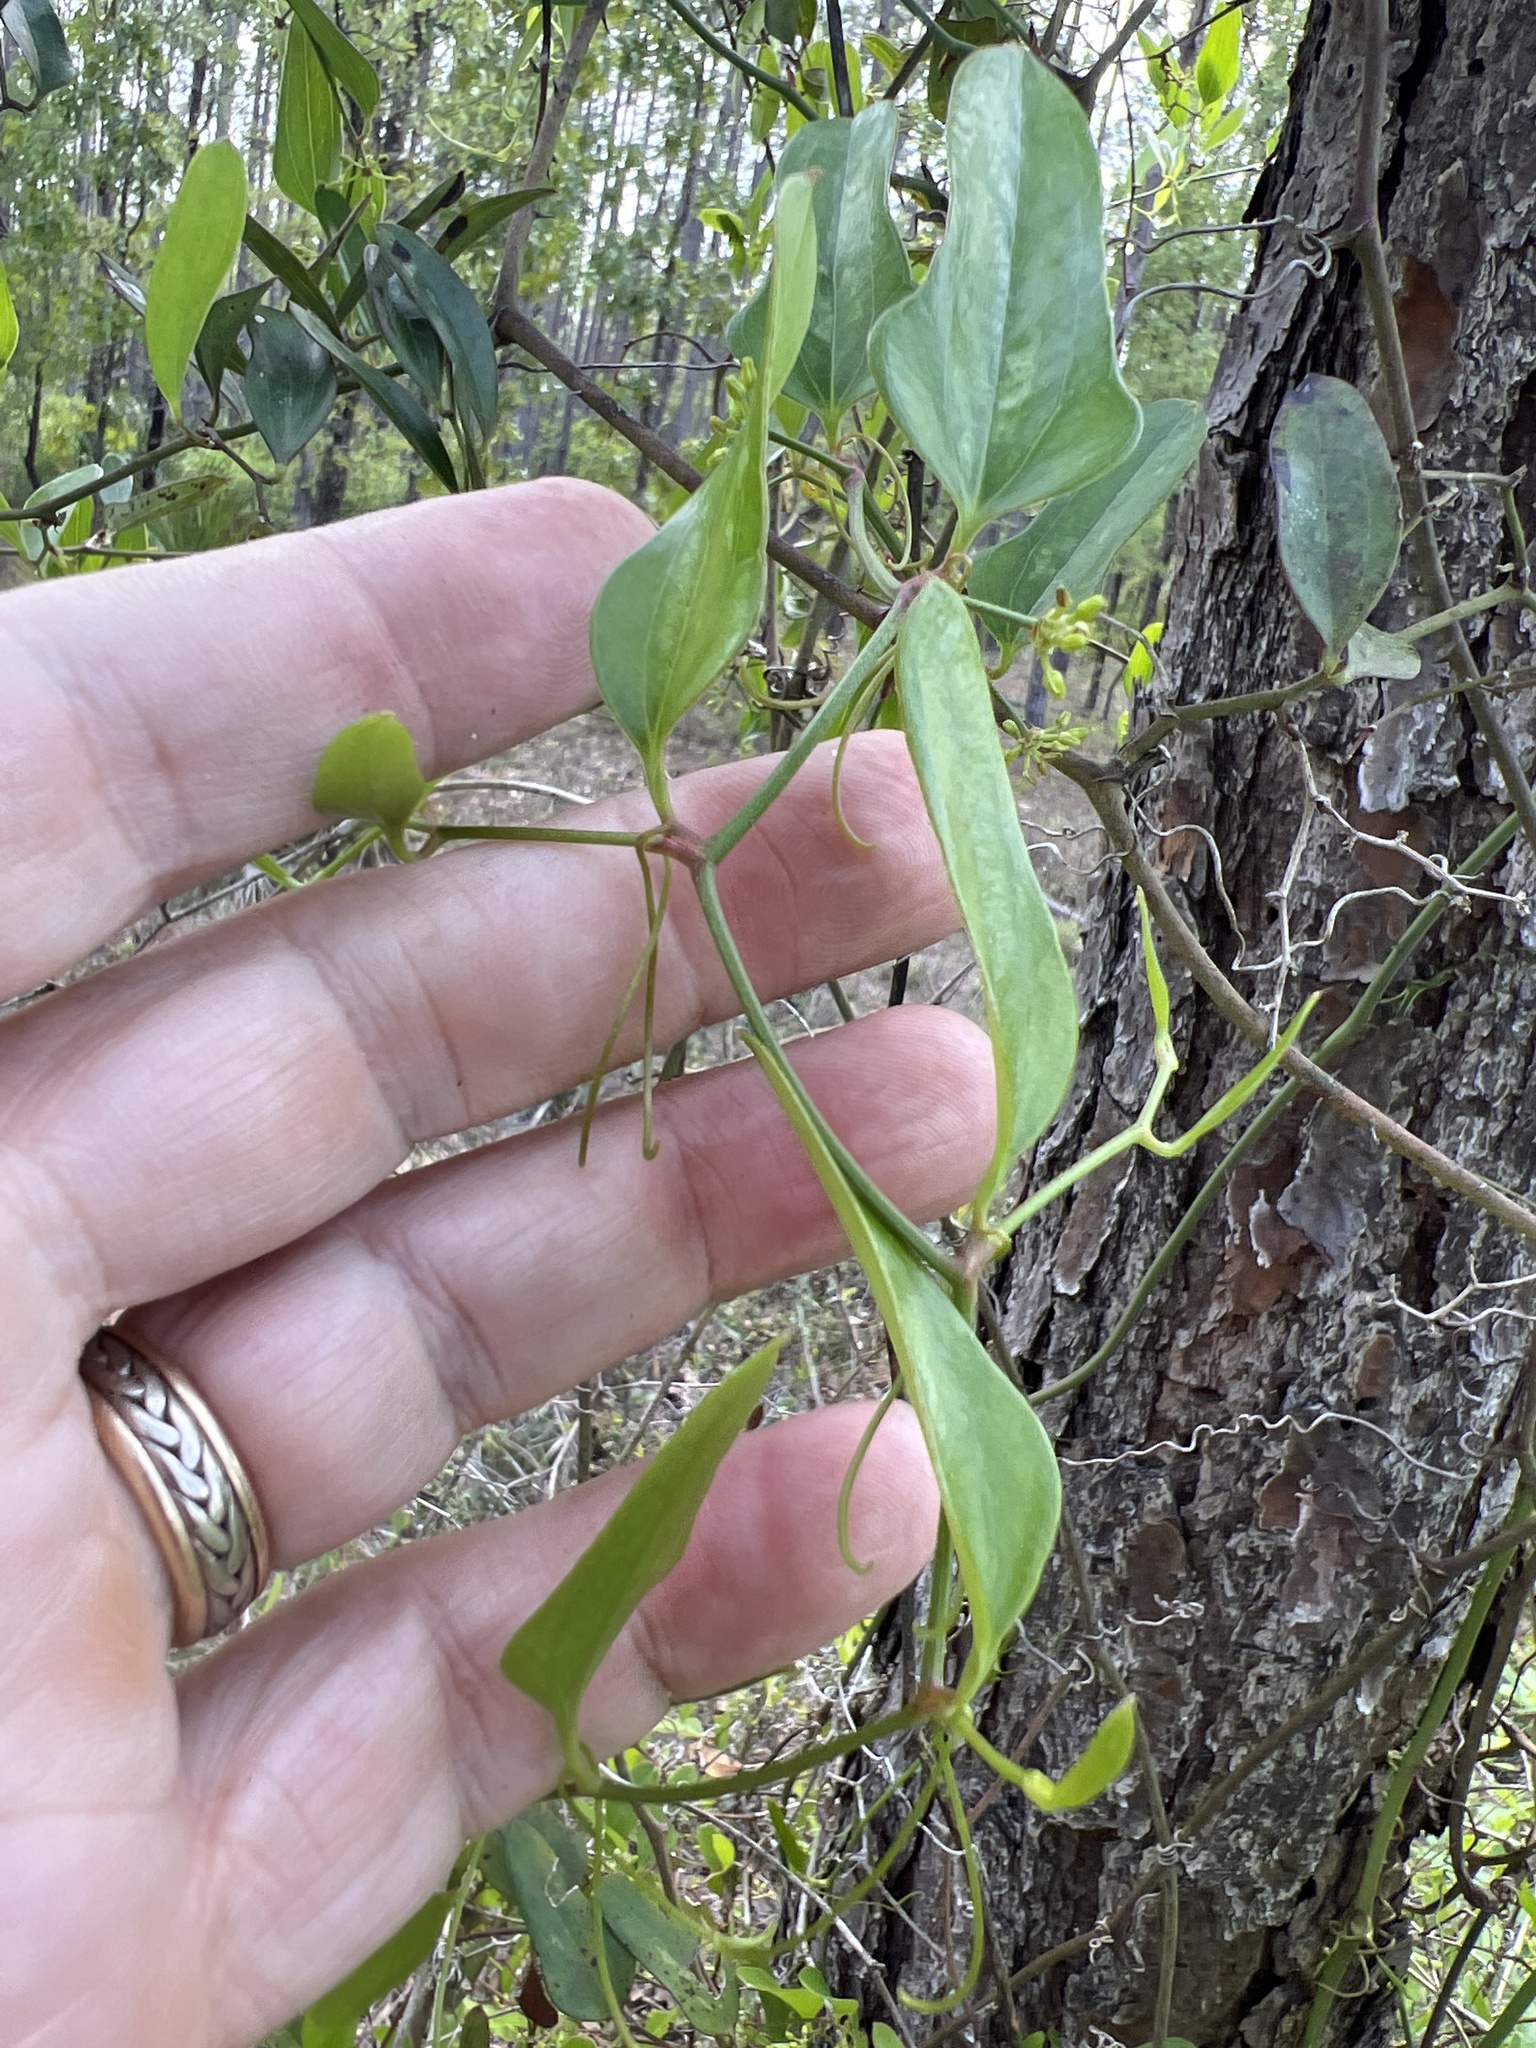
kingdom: Plantae
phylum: Tracheophyta
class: Liliopsida
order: Liliales
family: Smilacaceae
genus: Smilax
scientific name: Smilax auriculata
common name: Wild bamboo
